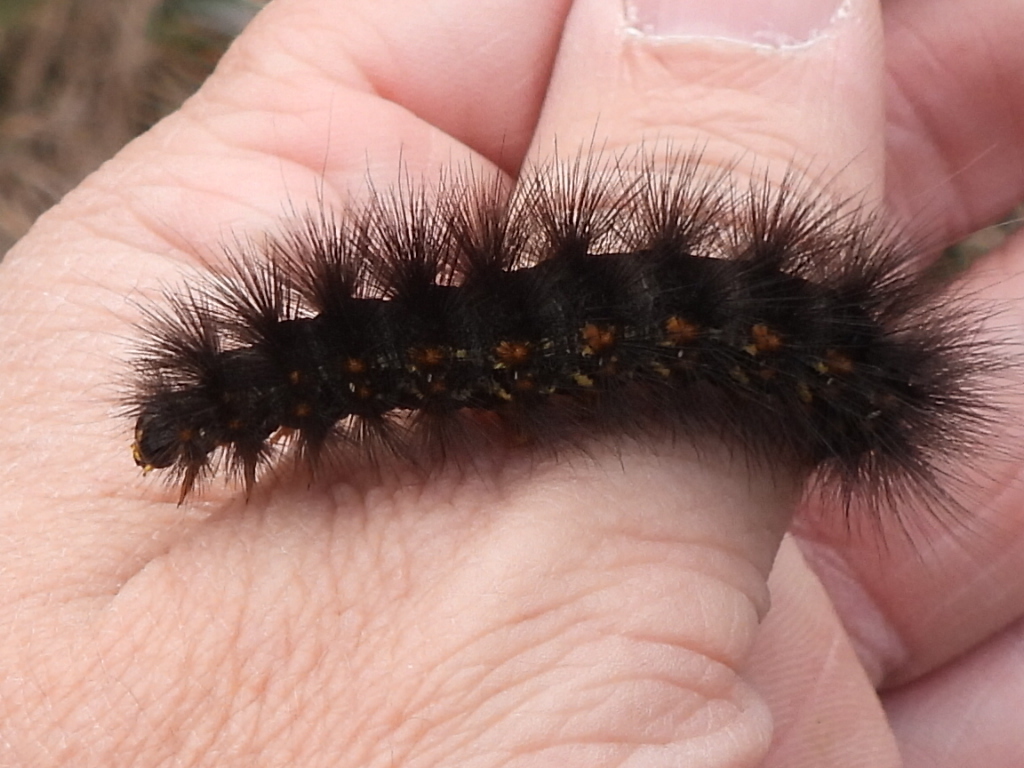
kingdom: Animalia
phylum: Arthropoda
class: Insecta
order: Lepidoptera
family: Erebidae
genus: Estigmene
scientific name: Estigmene acrea
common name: Salt marsh moth
